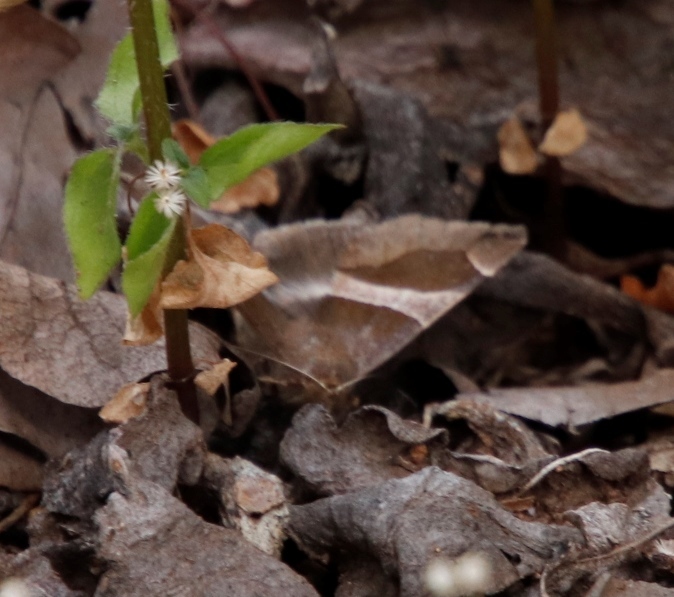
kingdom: Animalia
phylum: Arthropoda
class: Insecta
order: Lepidoptera
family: Erebidae
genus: Dysgonia
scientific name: Dysgonia torrida
